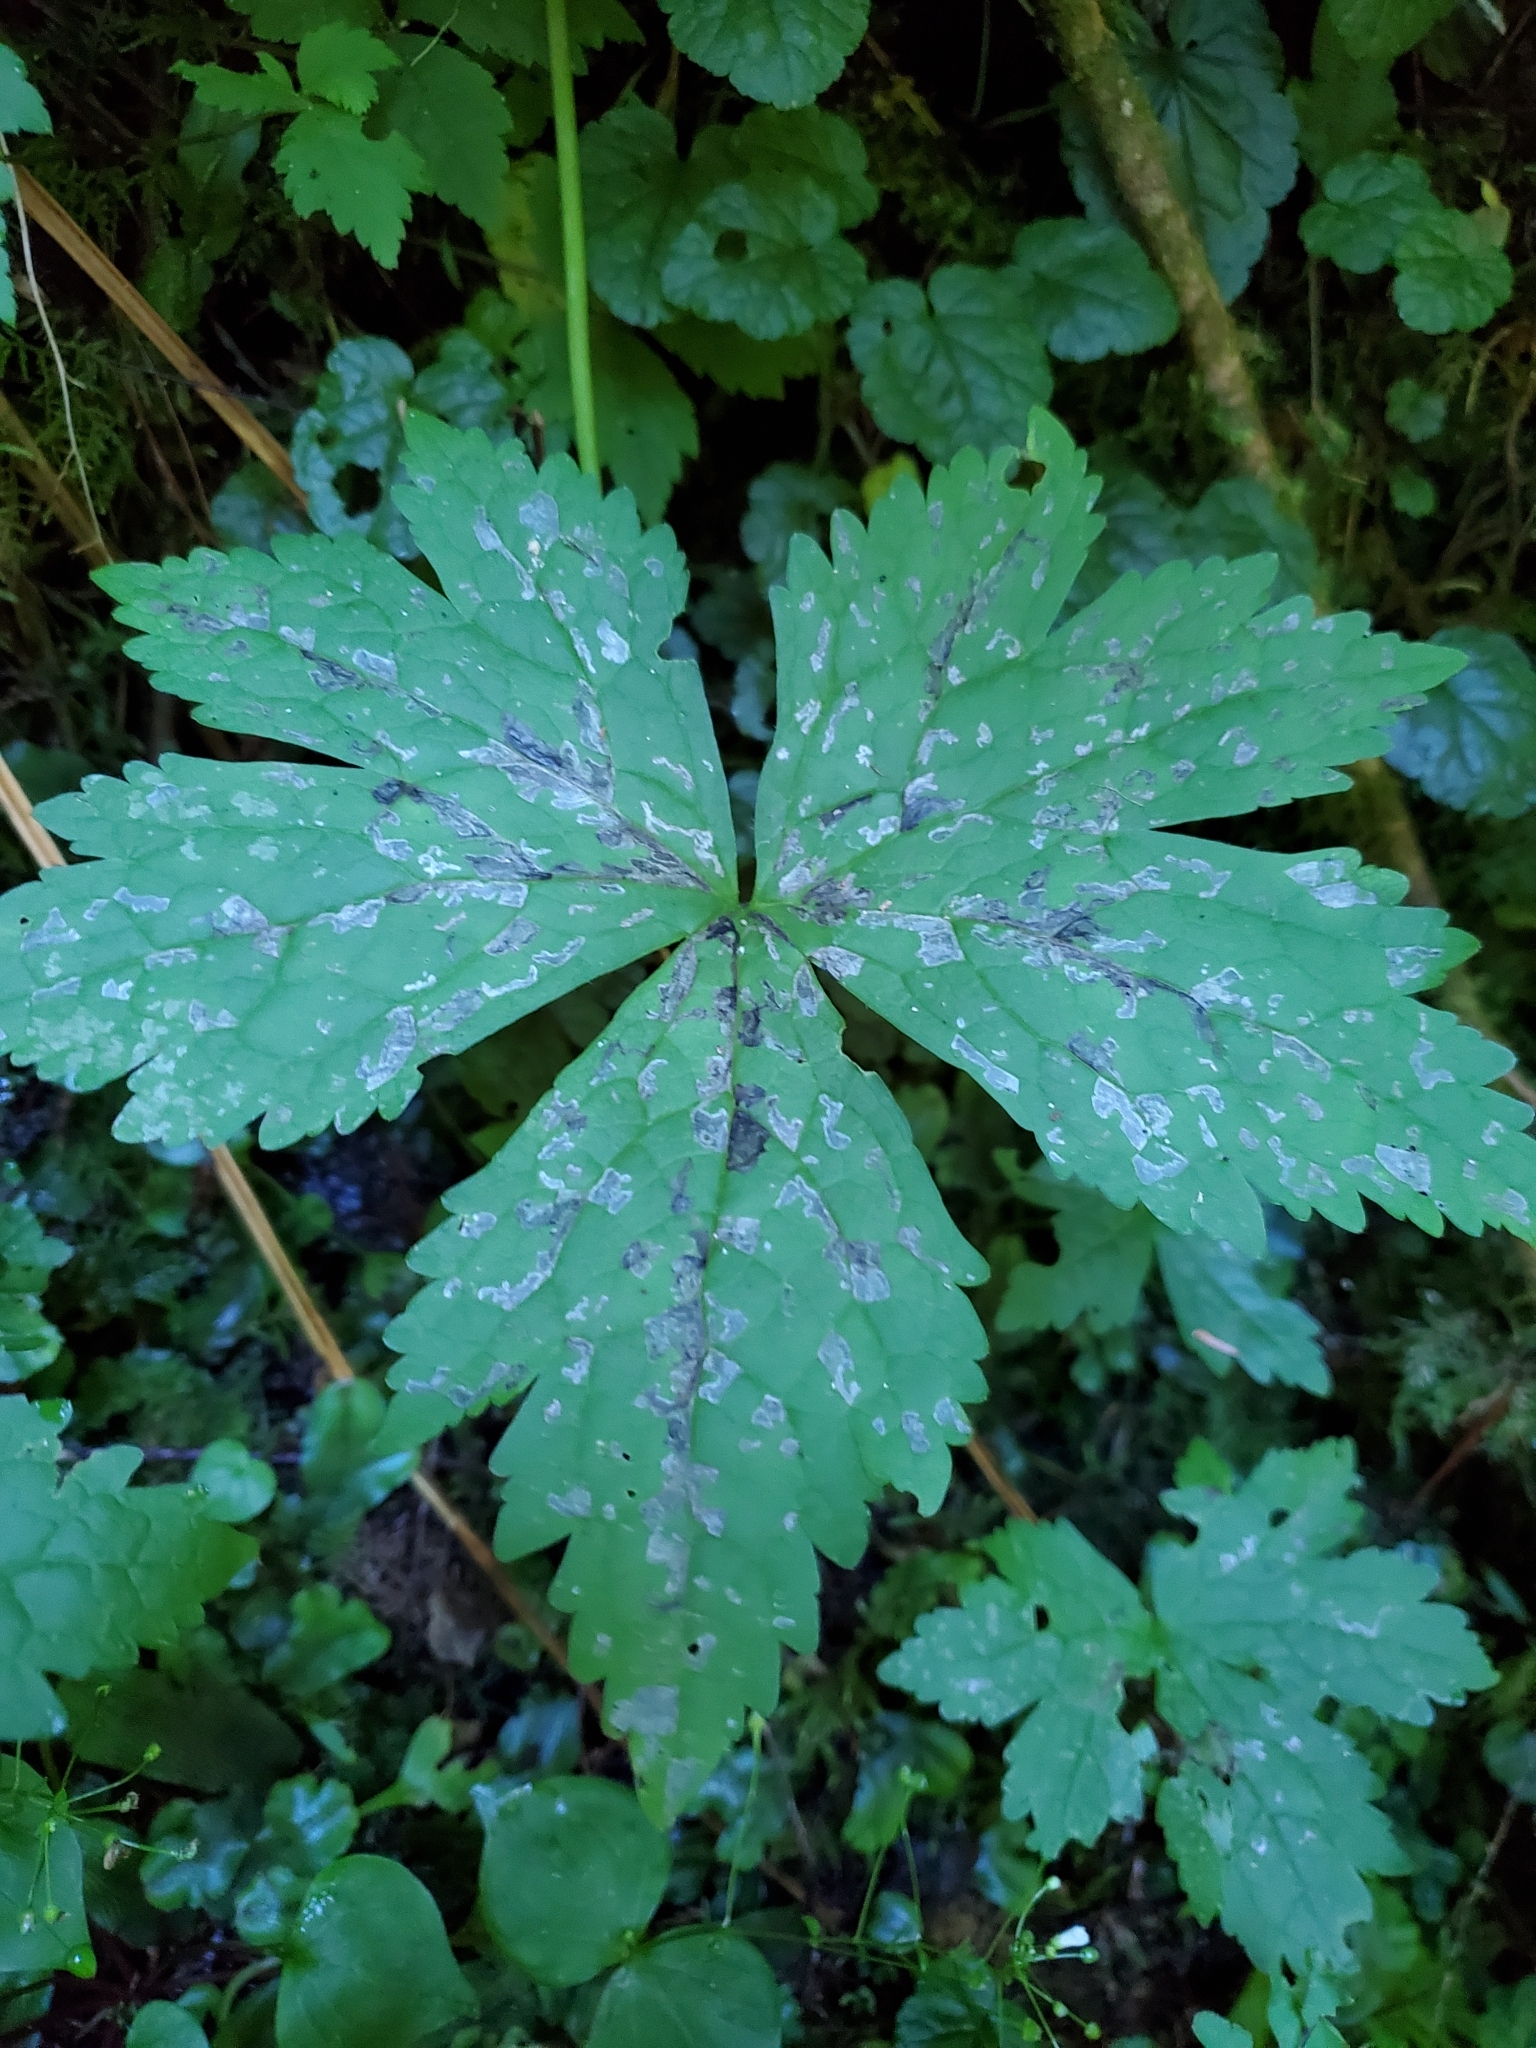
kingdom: Plantae
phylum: Tracheophyta
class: Magnoliopsida
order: Ranunculales
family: Ranunculaceae
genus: Trautvetteria
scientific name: Trautvetteria carolinensis
